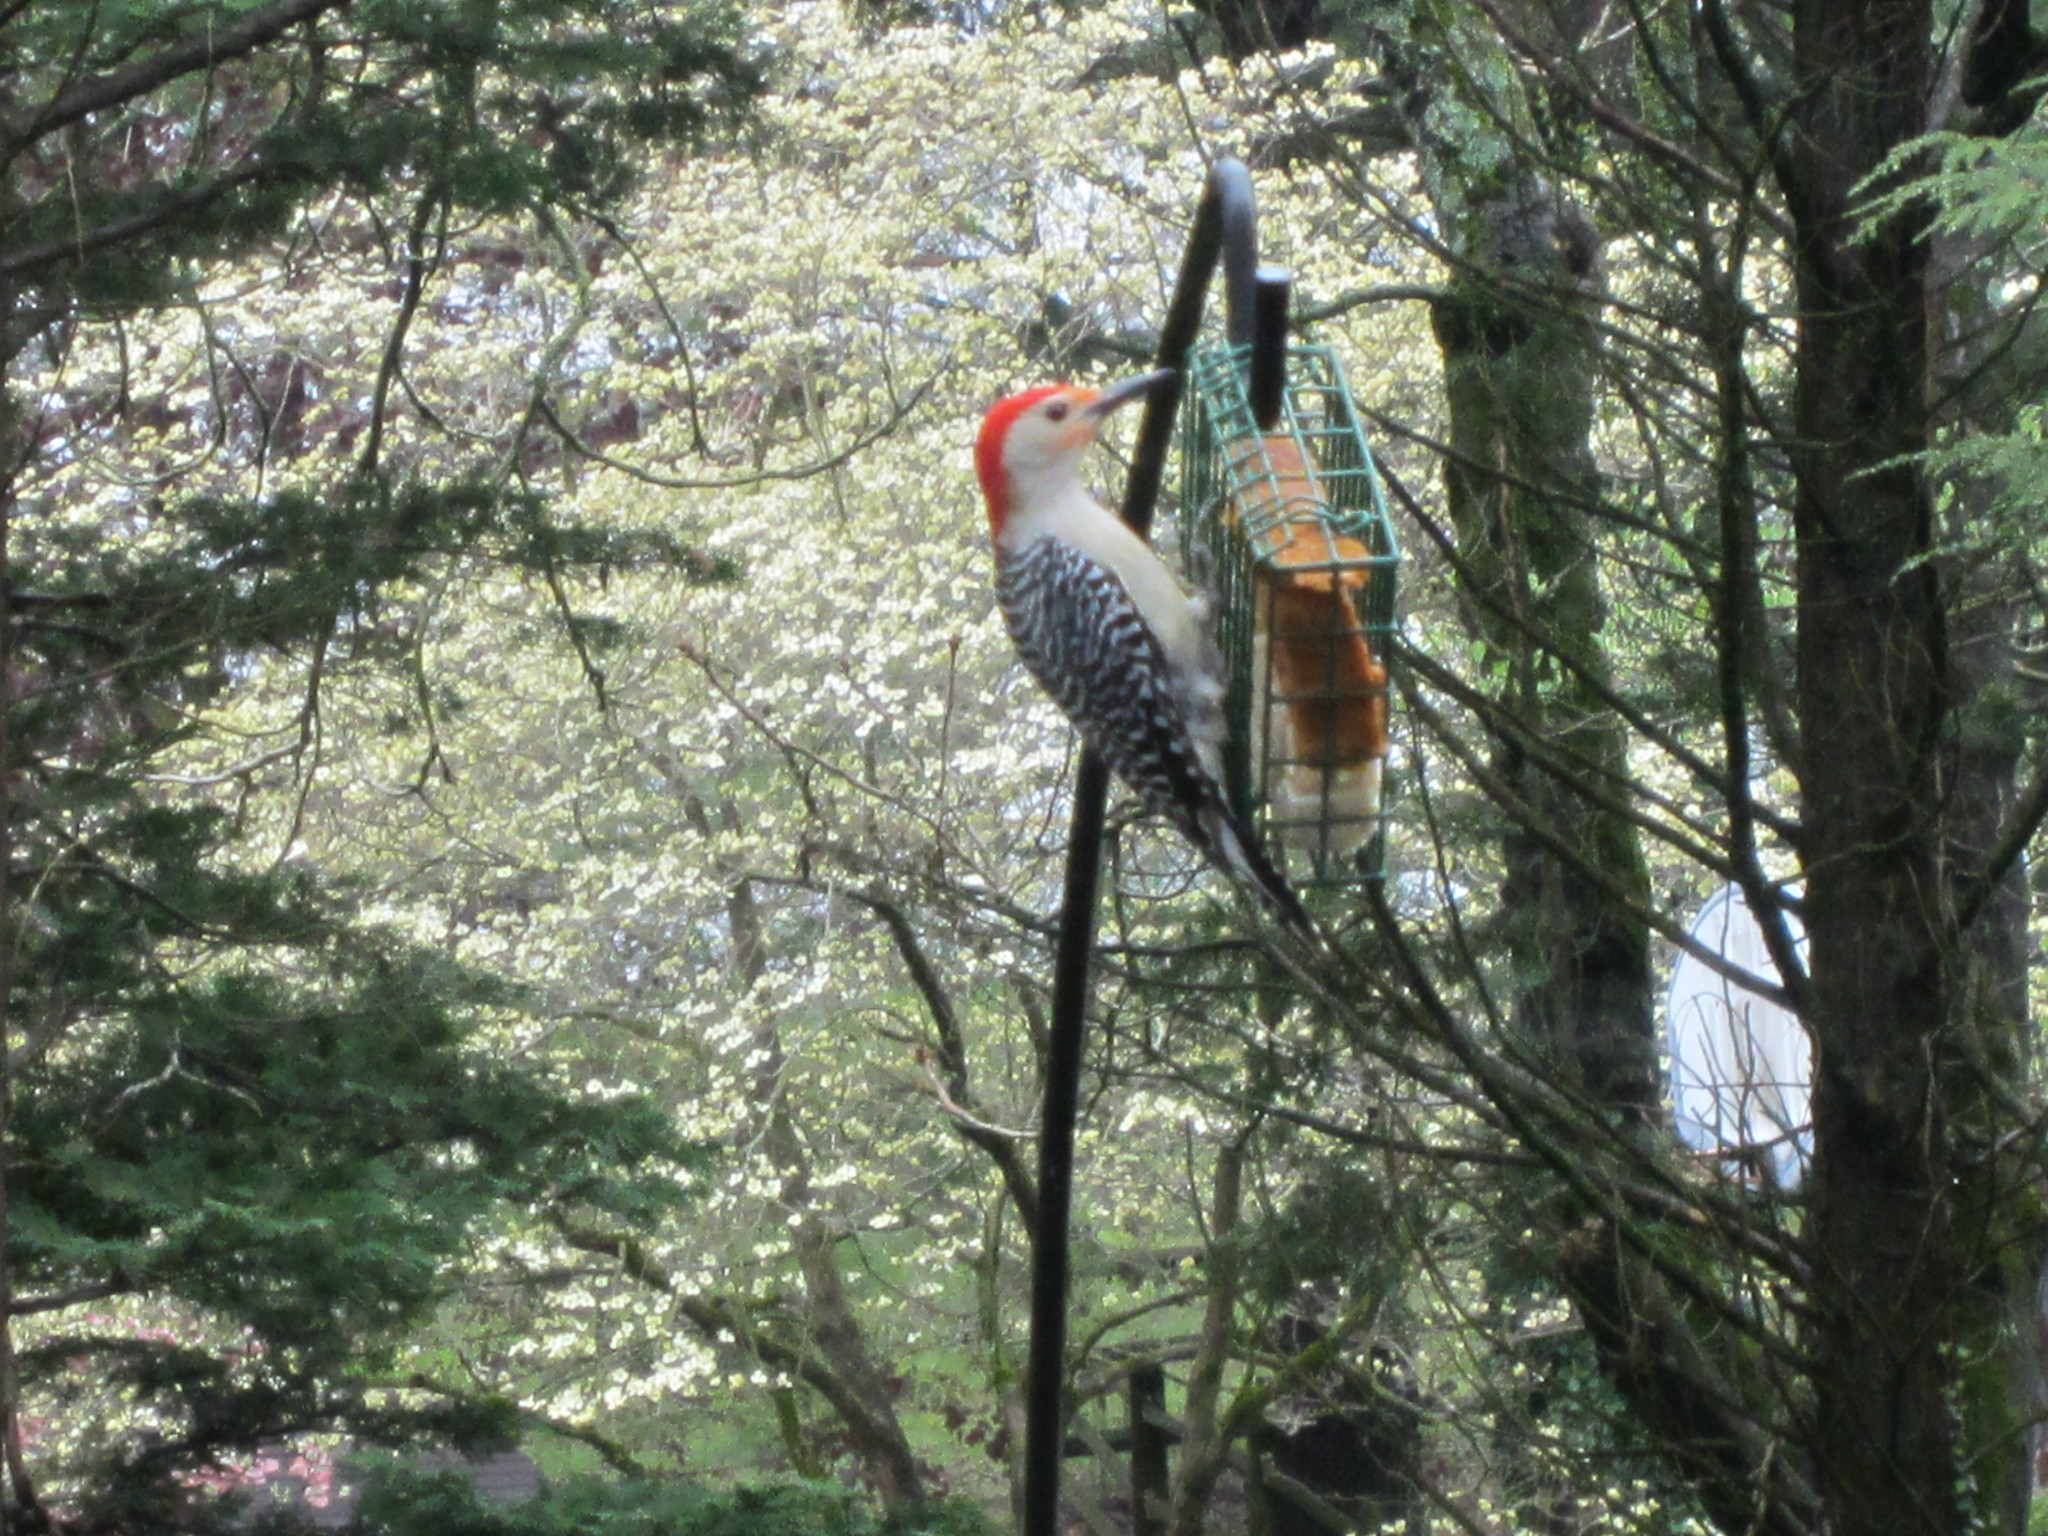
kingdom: Animalia
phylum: Chordata
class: Aves
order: Piciformes
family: Picidae
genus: Melanerpes
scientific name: Melanerpes carolinus
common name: Red-bellied woodpecker
